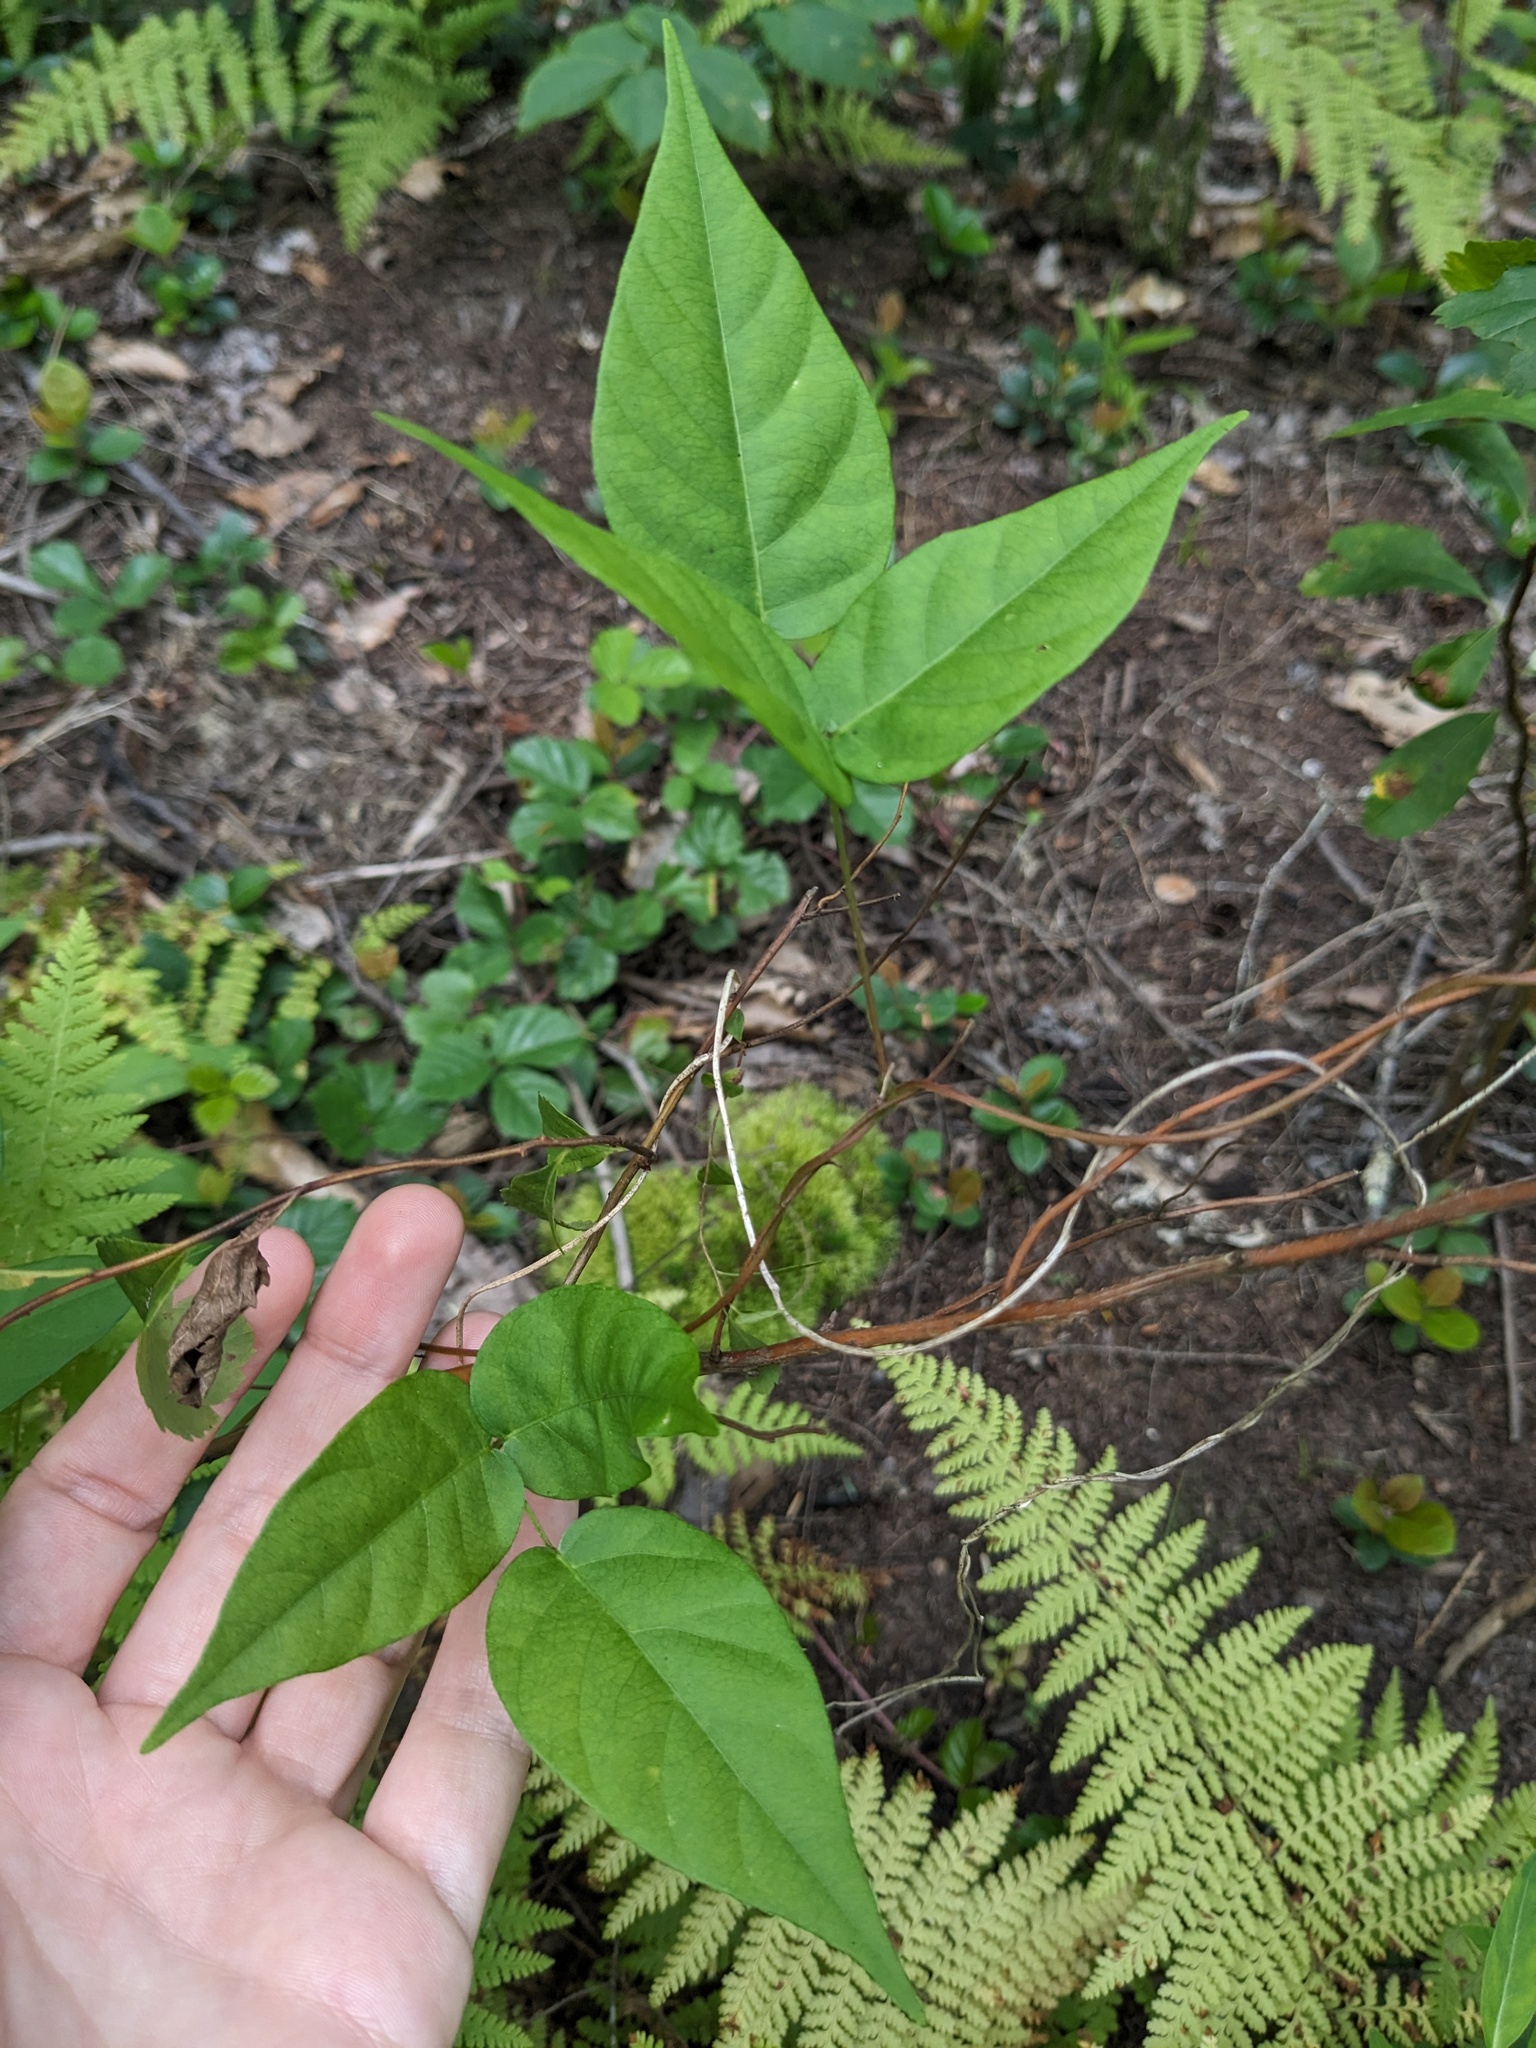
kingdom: Plantae
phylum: Tracheophyta
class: Magnoliopsida
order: Fabales
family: Fabaceae
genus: Apios
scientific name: Apios americana
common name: American potato-bean
